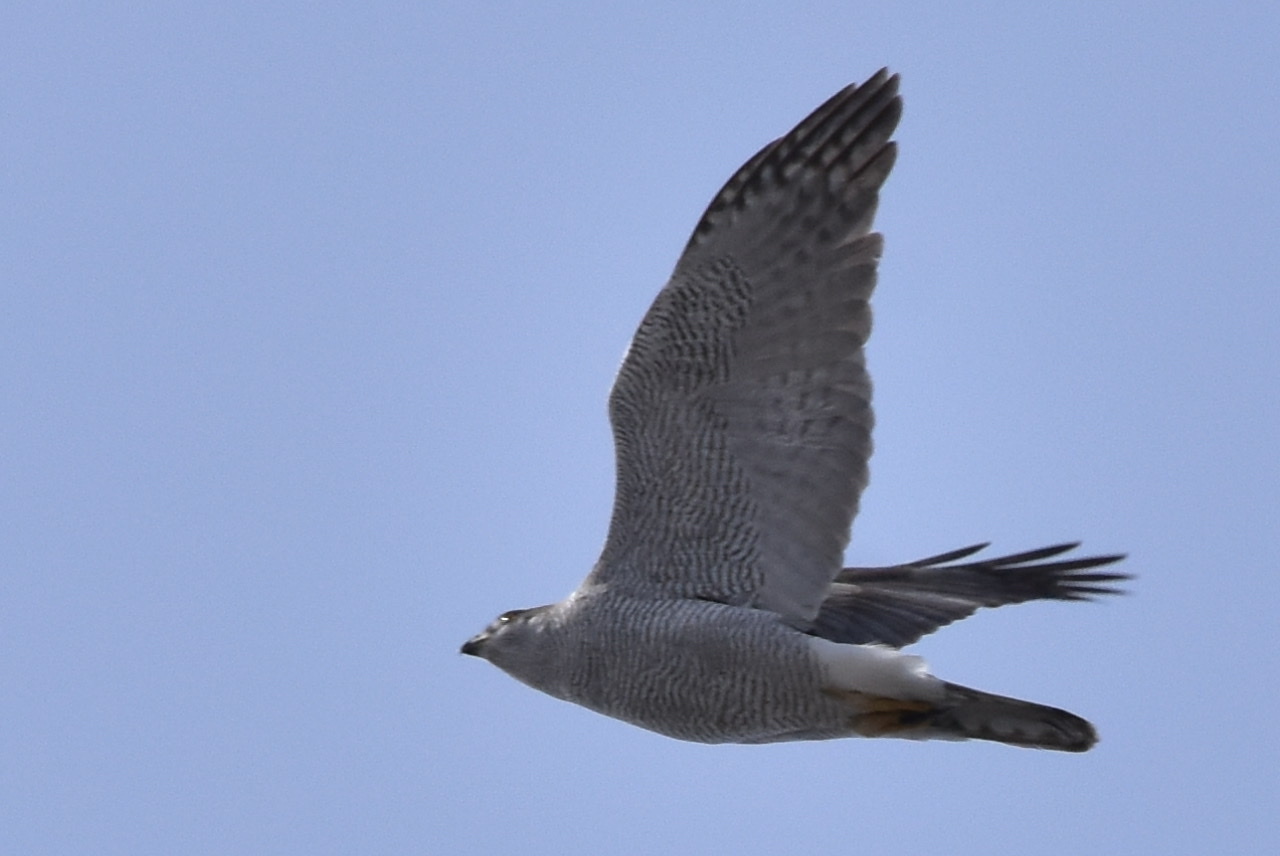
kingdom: Animalia
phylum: Chordata
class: Aves
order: Accipitriformes
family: Accipitridae
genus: Accipiter
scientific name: Accipiter gentilis
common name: Northern goshawk
